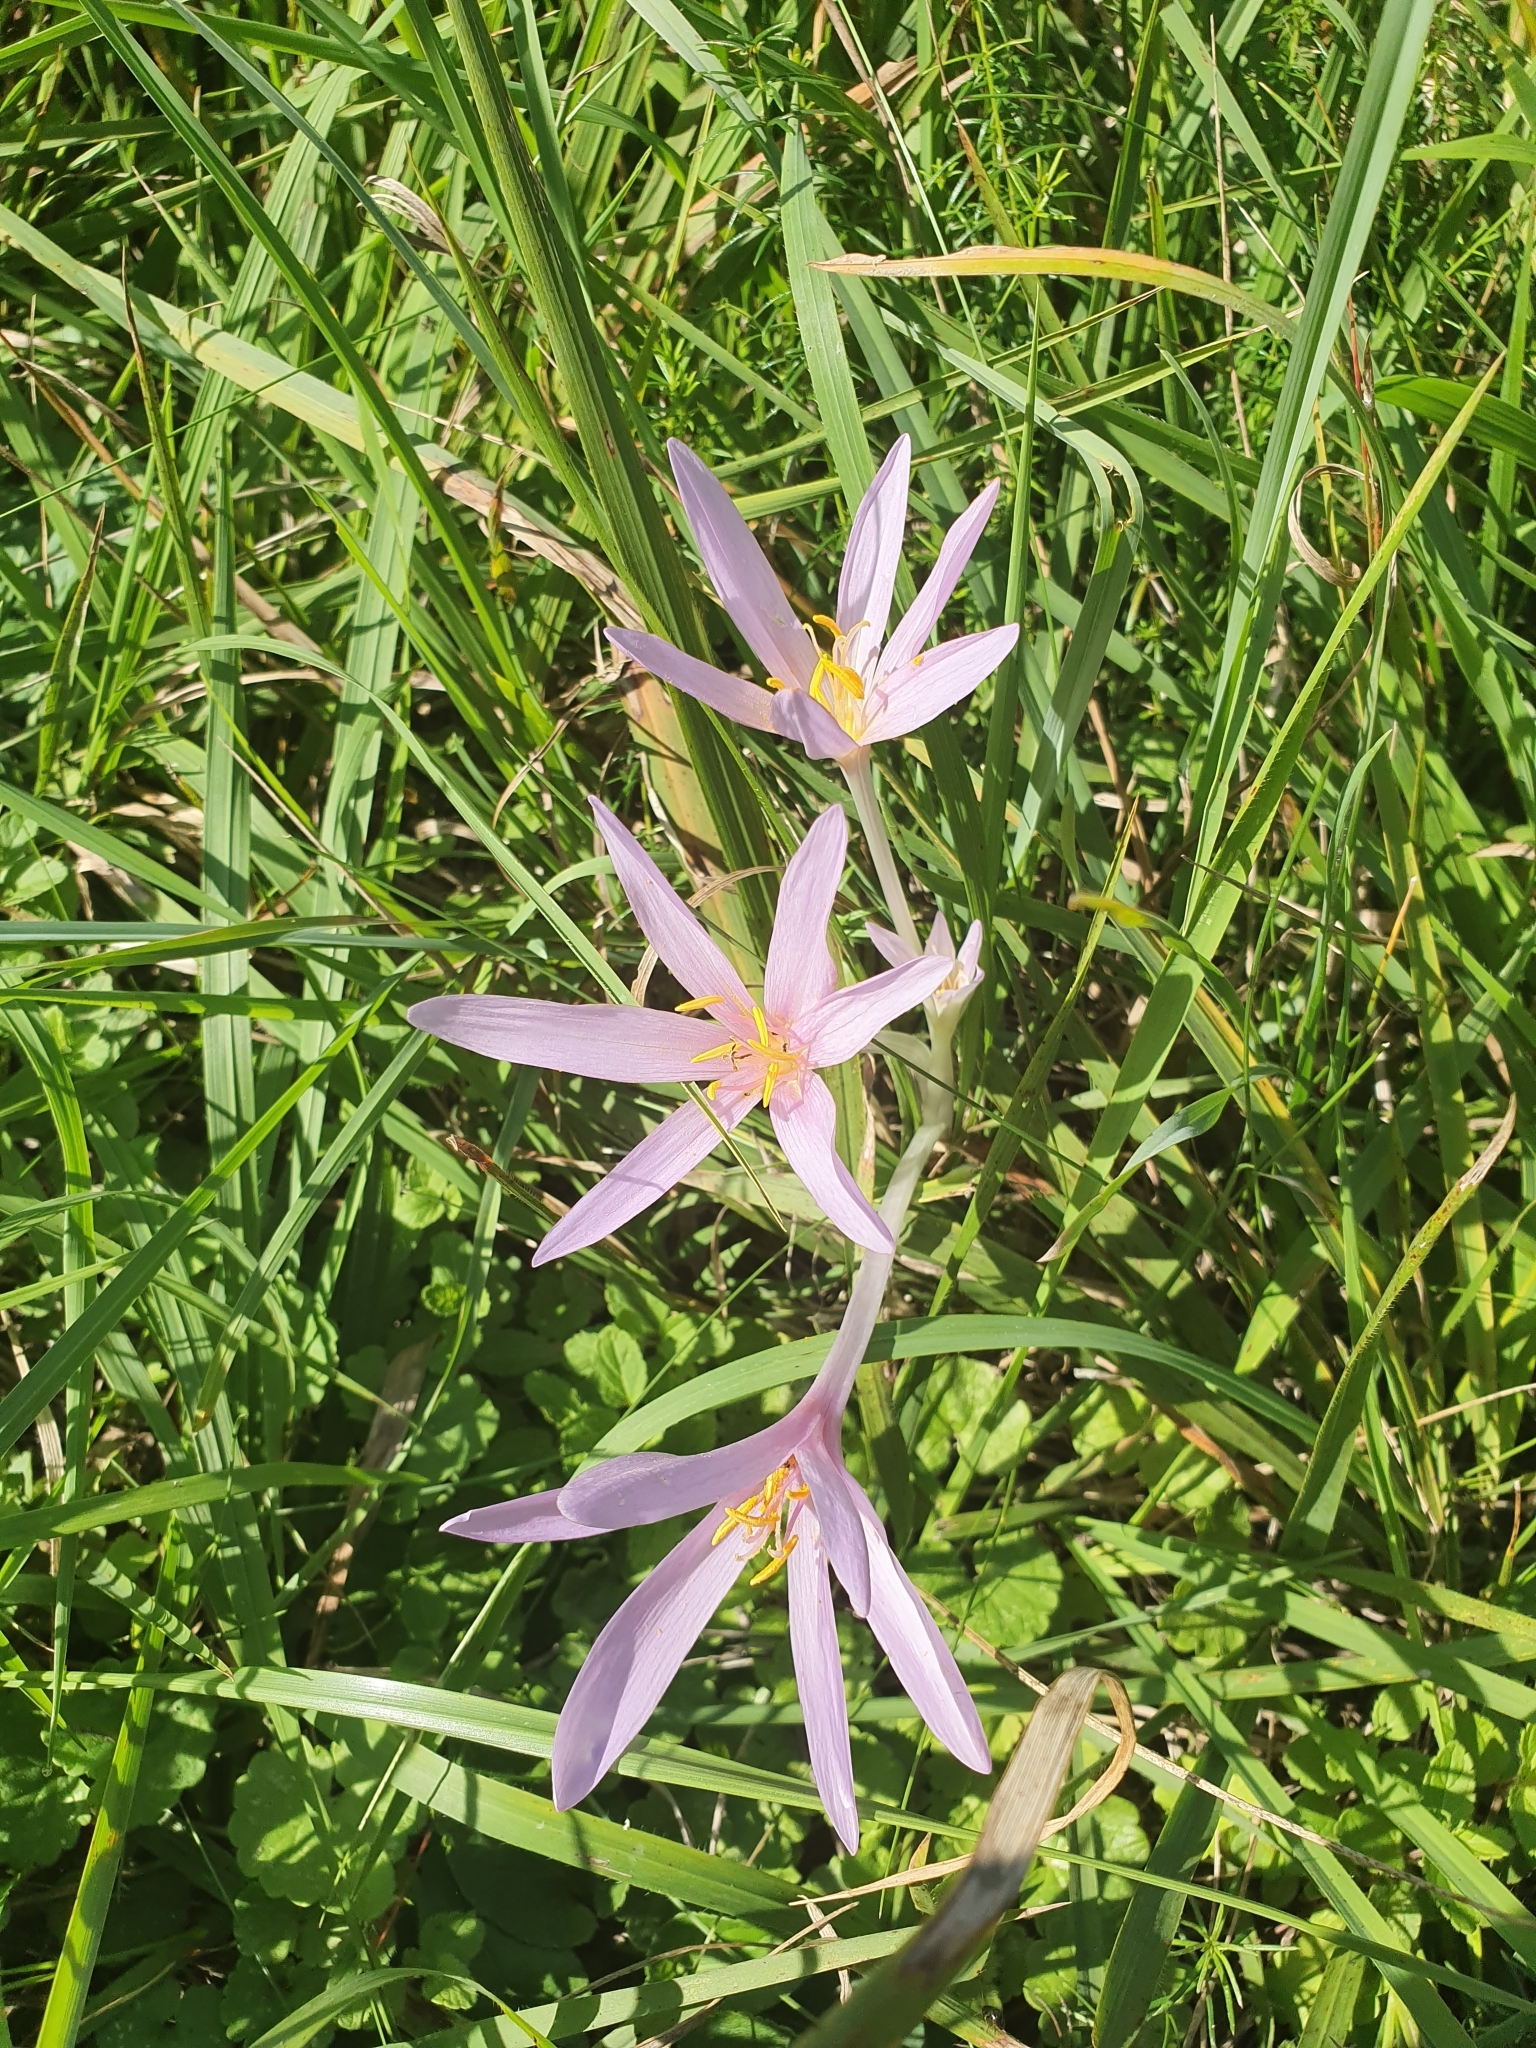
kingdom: Plantae
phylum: Tracheophyta
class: Liliopsida
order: Liliales
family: Colchicaceae
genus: Colchicum
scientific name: Colchicum autumnale
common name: Autumn crocus
